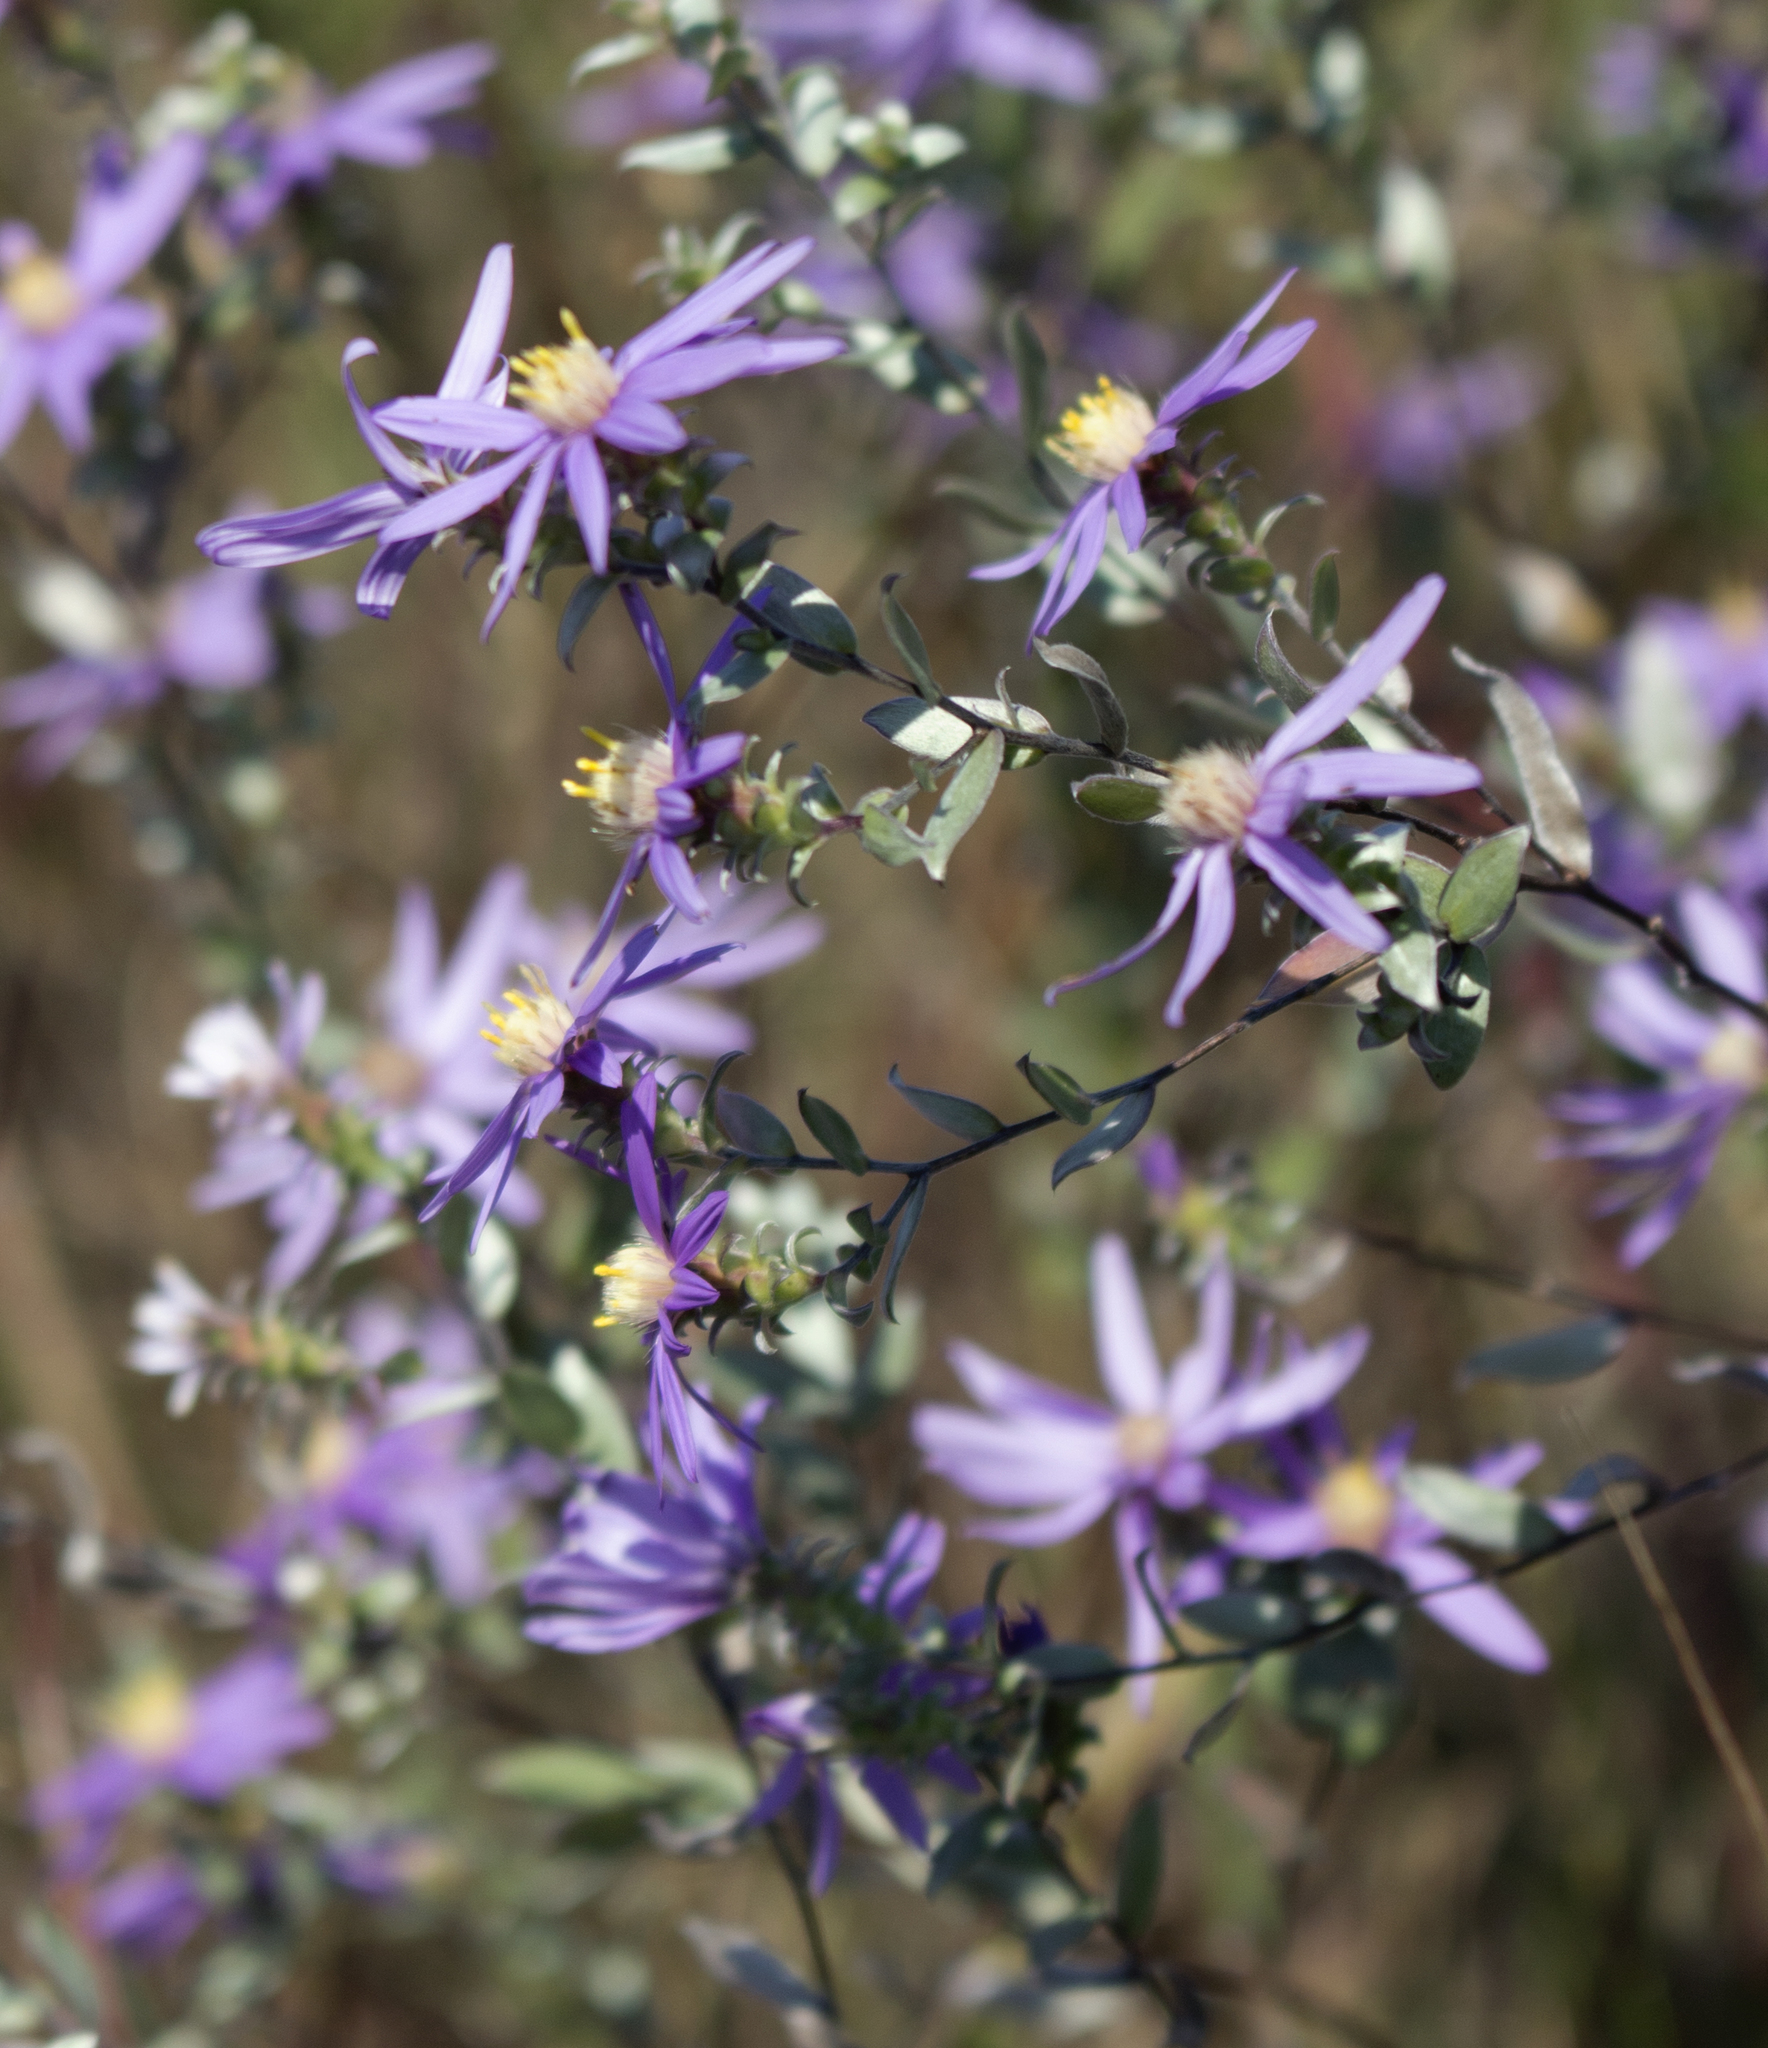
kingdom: Plantae
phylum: Tracheophyta
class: Magnoliopsida
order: Asterales
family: Asteraceae
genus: Symphyotrichum
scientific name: Symphyotrichum sericeum
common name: Silky aster
